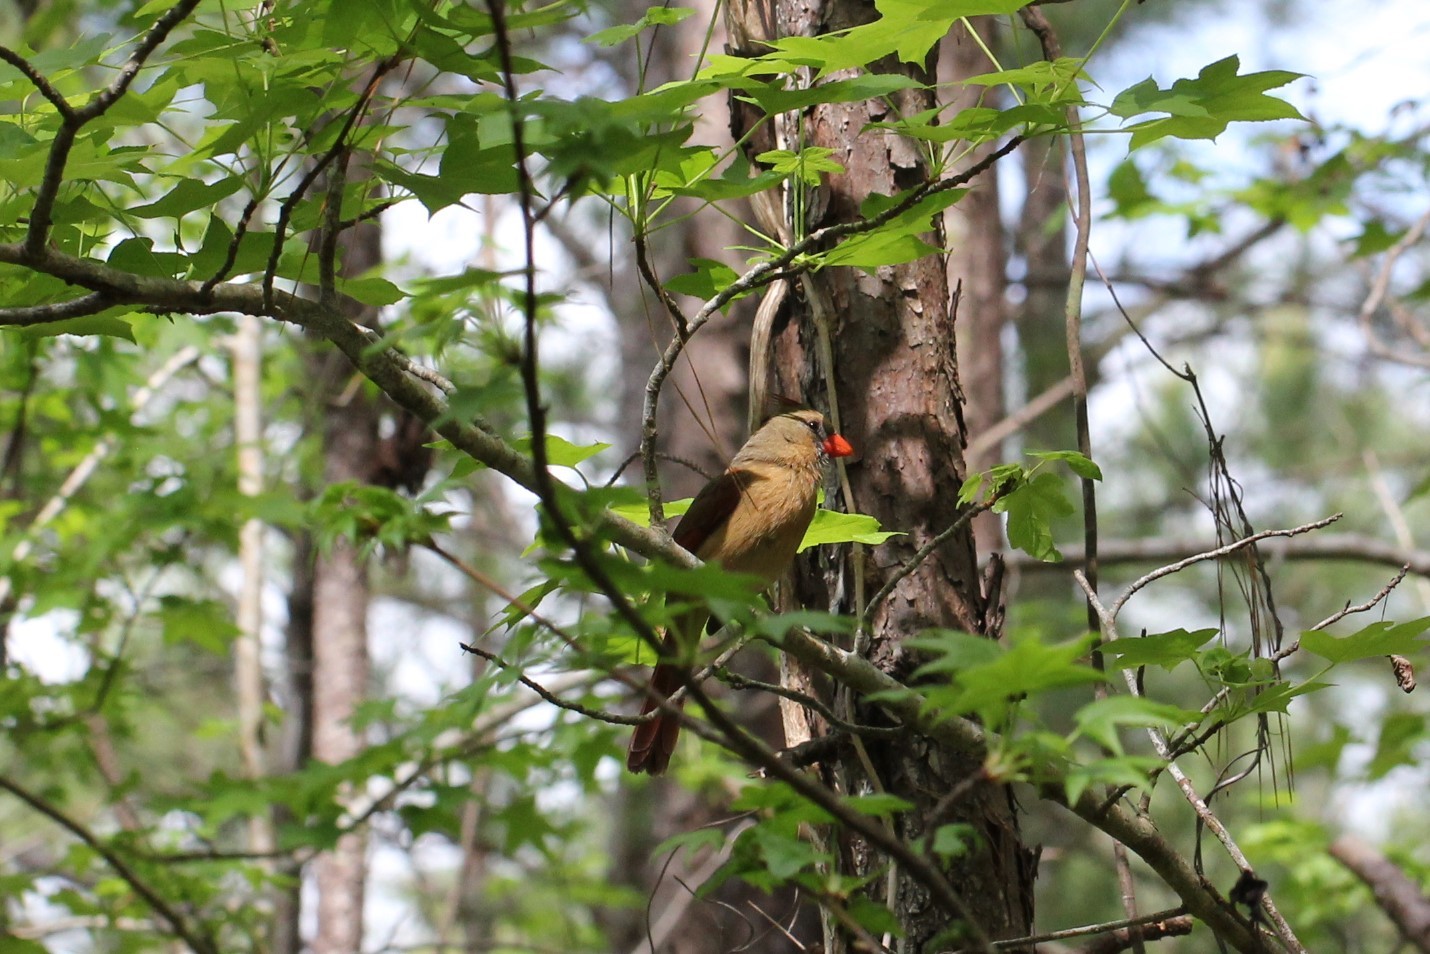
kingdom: Animalia
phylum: Chordata
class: Aves
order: Passeriformes
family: Cardinalidae
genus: Cardinalis
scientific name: Cardinalis cardinalis
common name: Northern cardinal
